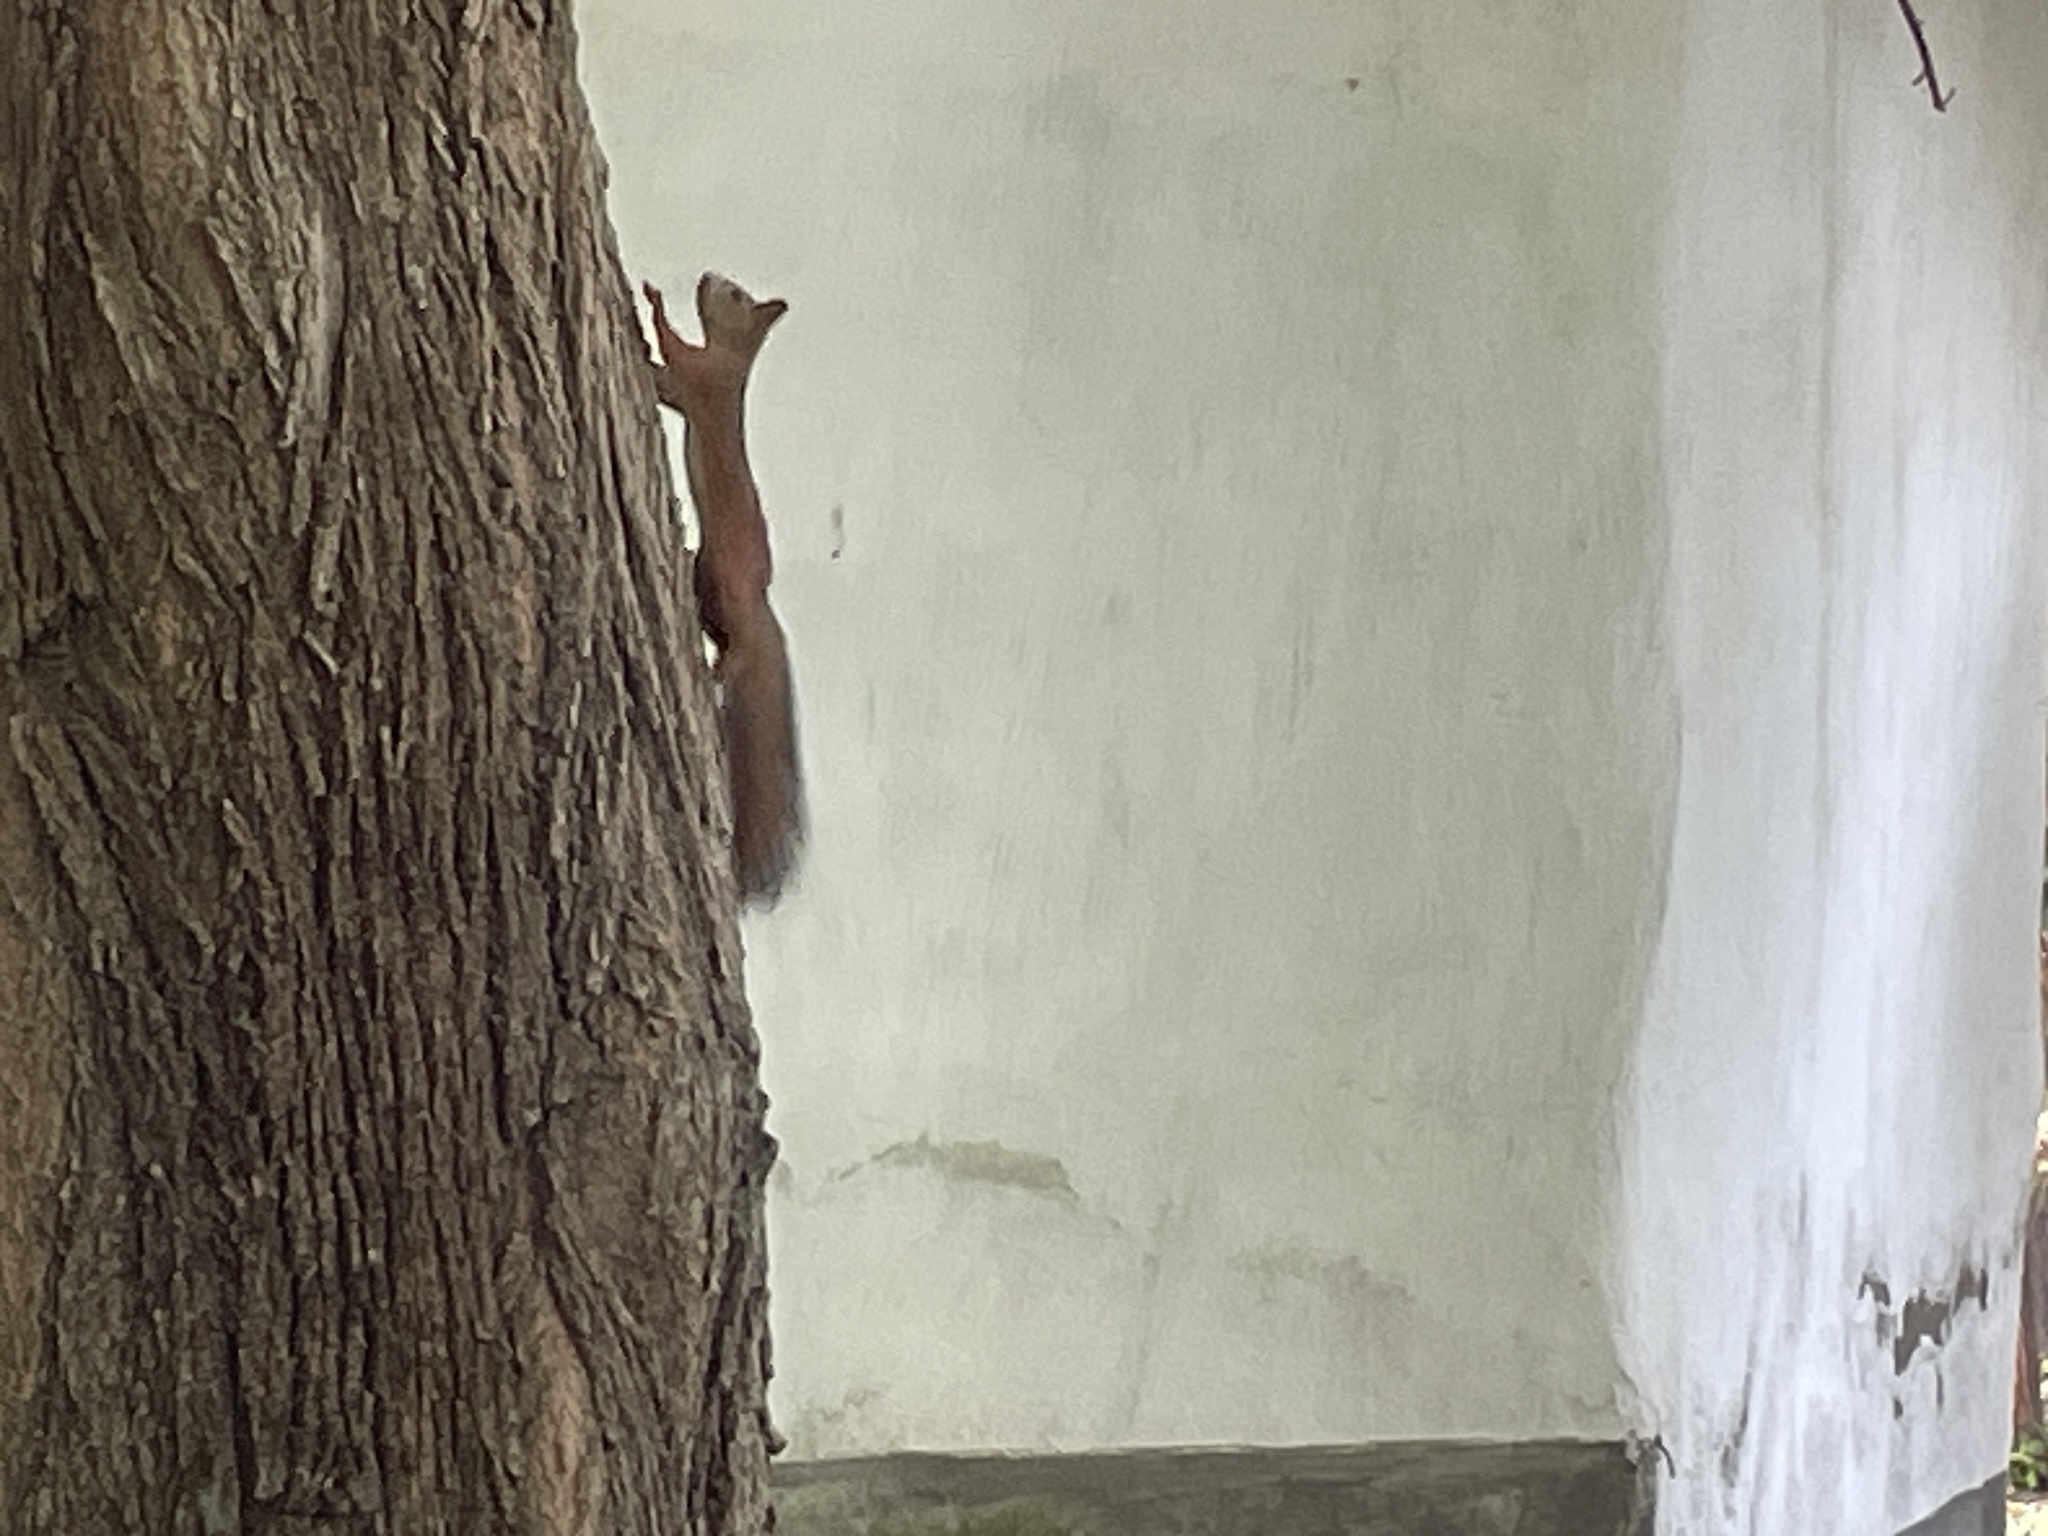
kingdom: Animalia
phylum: Chordata
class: Mammalia
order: Rodentia
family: Sciuridae
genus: Sciurus
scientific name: Sciurus vulgaris
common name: Eurasian red squirrel
